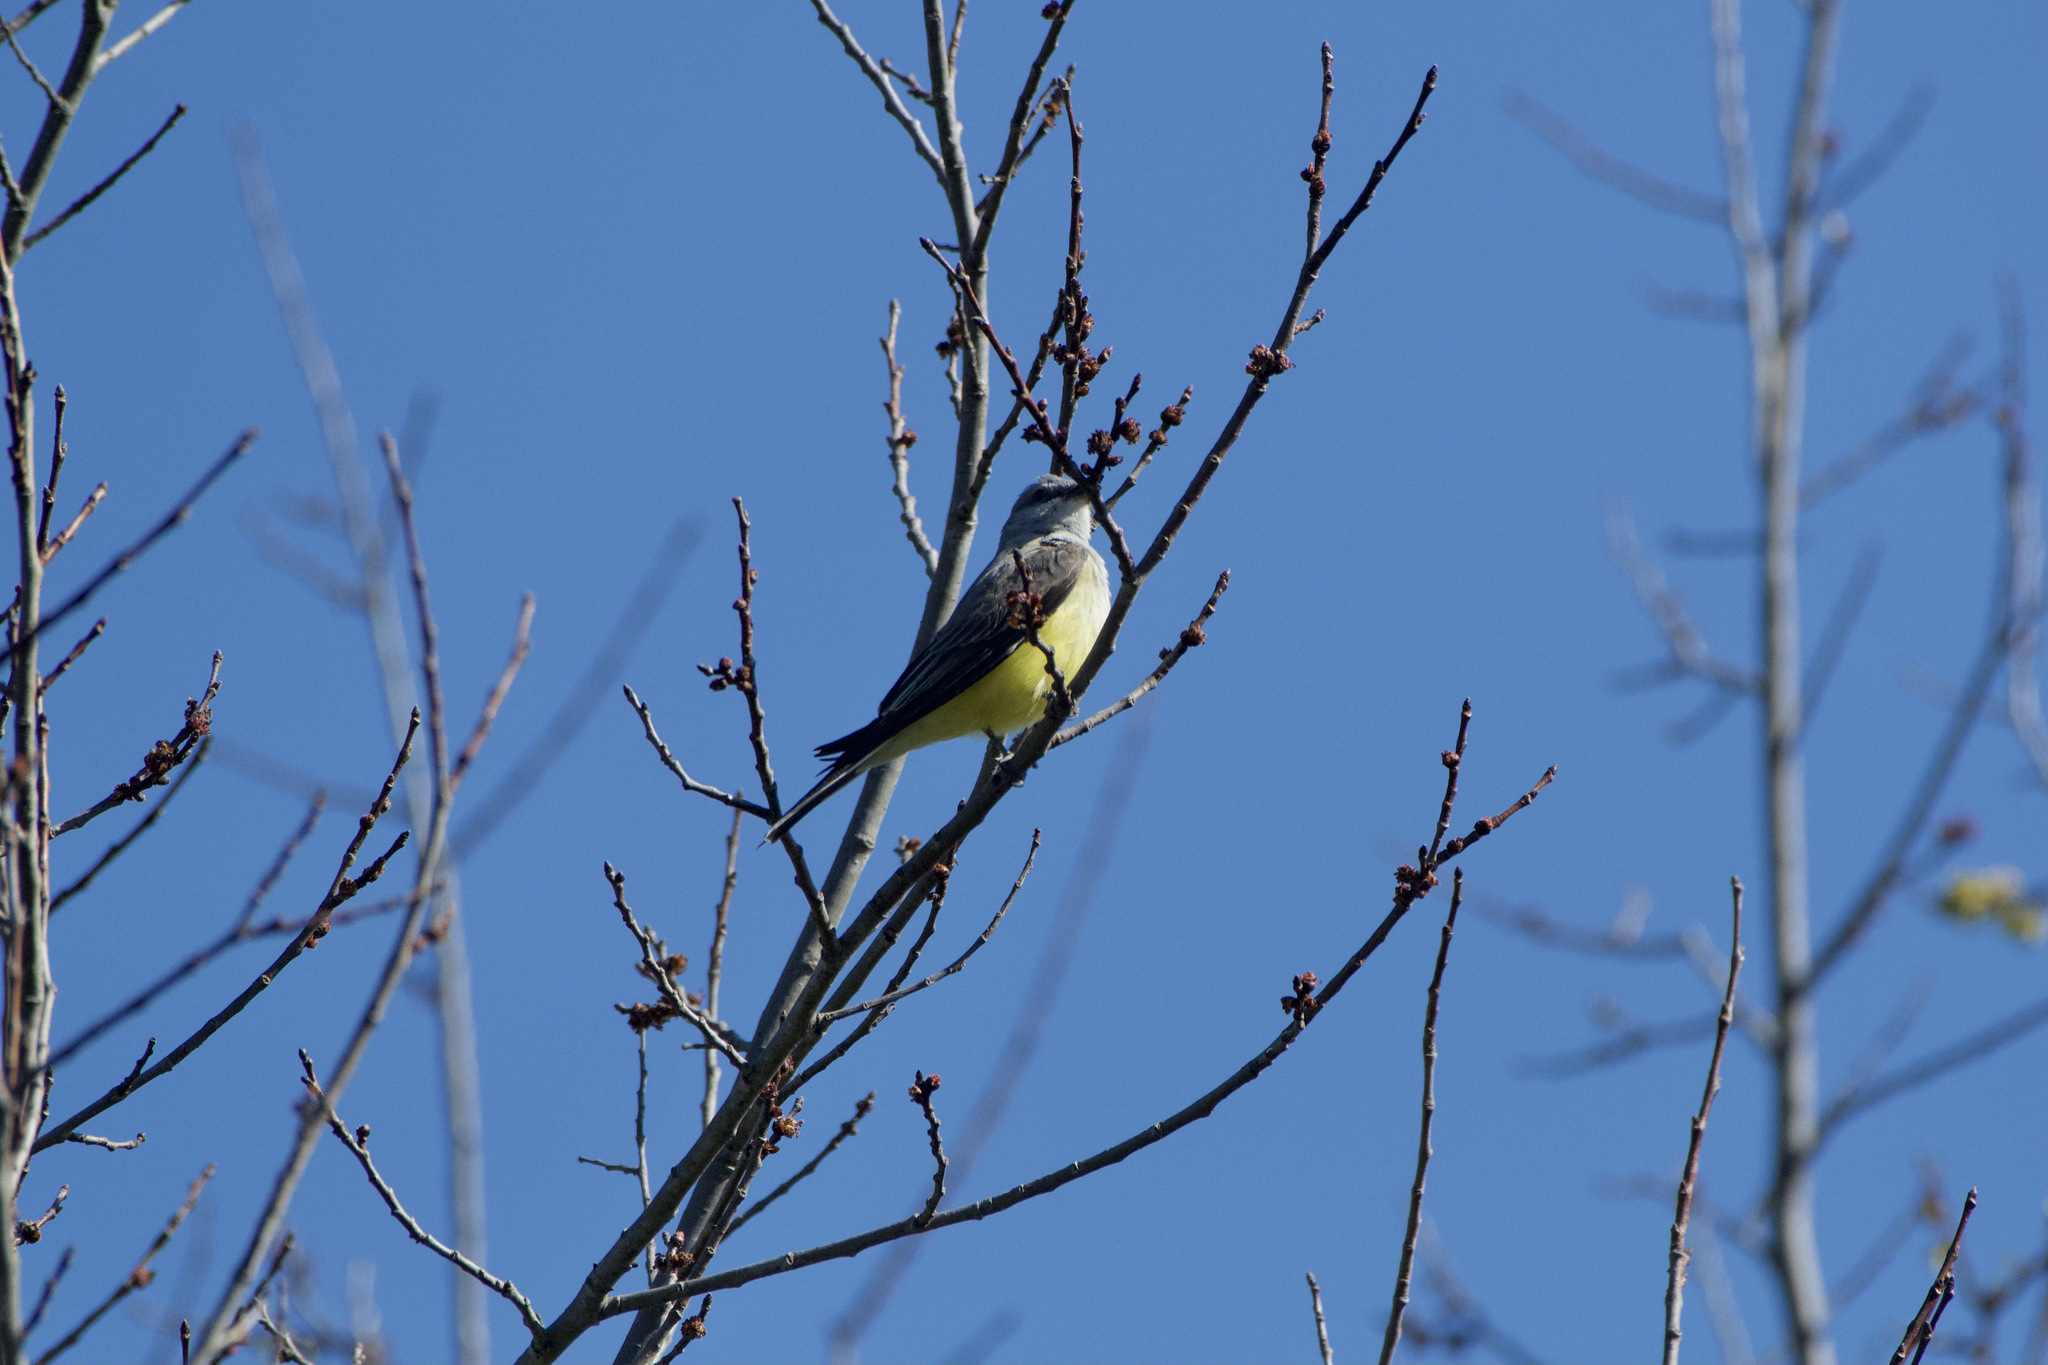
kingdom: Animalia
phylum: Chordata
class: Aves
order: Passeriformes
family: Tyrannidae
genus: Tyrannus
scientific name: Tyrannus verticalis
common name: Western kingbird
